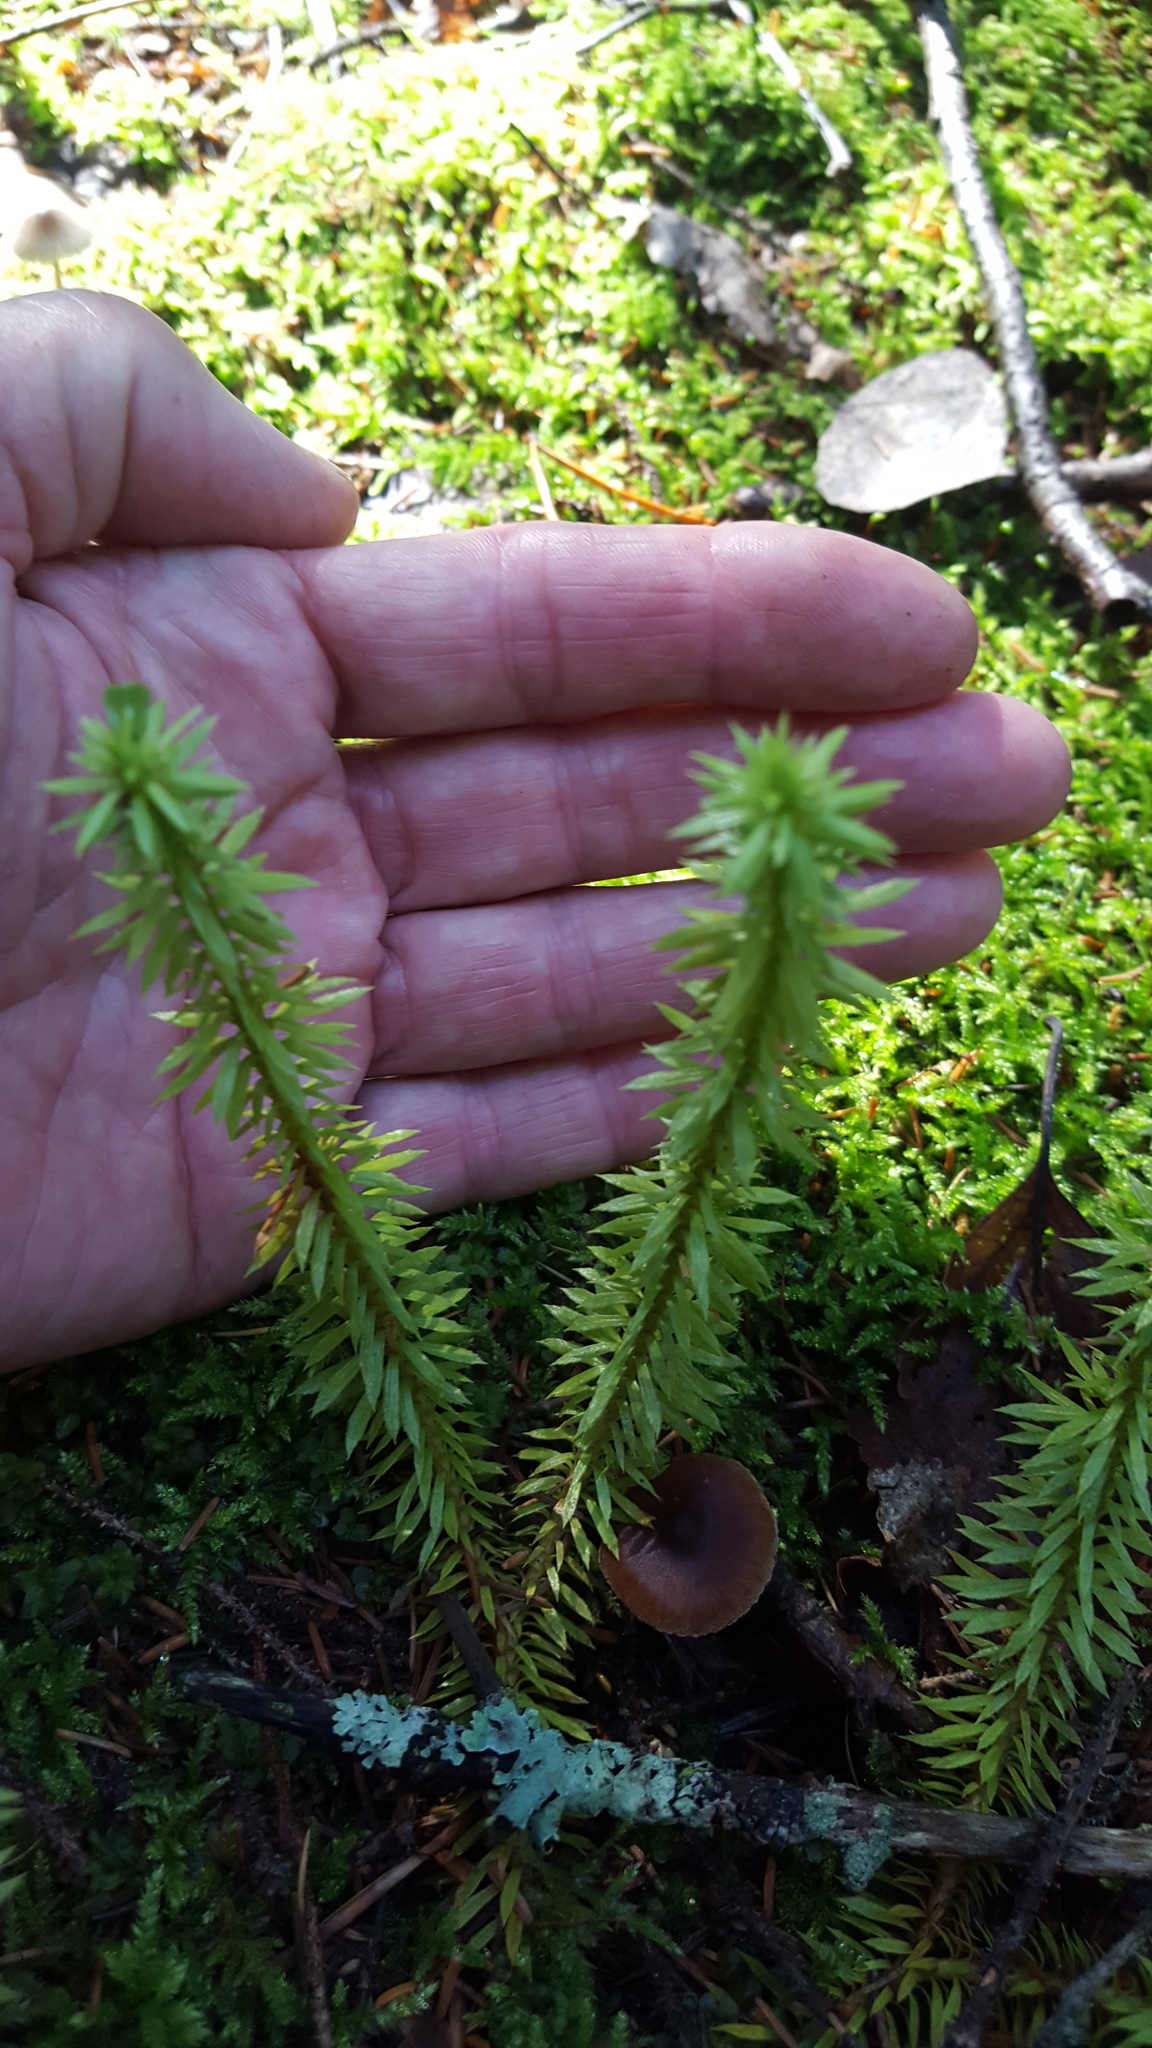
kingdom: Plantae
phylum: Tracheophyta
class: Lycopodiopsida
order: Lycopodiales
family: Lycopodiaceae
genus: Huperzia
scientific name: Huperzia lucidula
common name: Shining clubmoss
